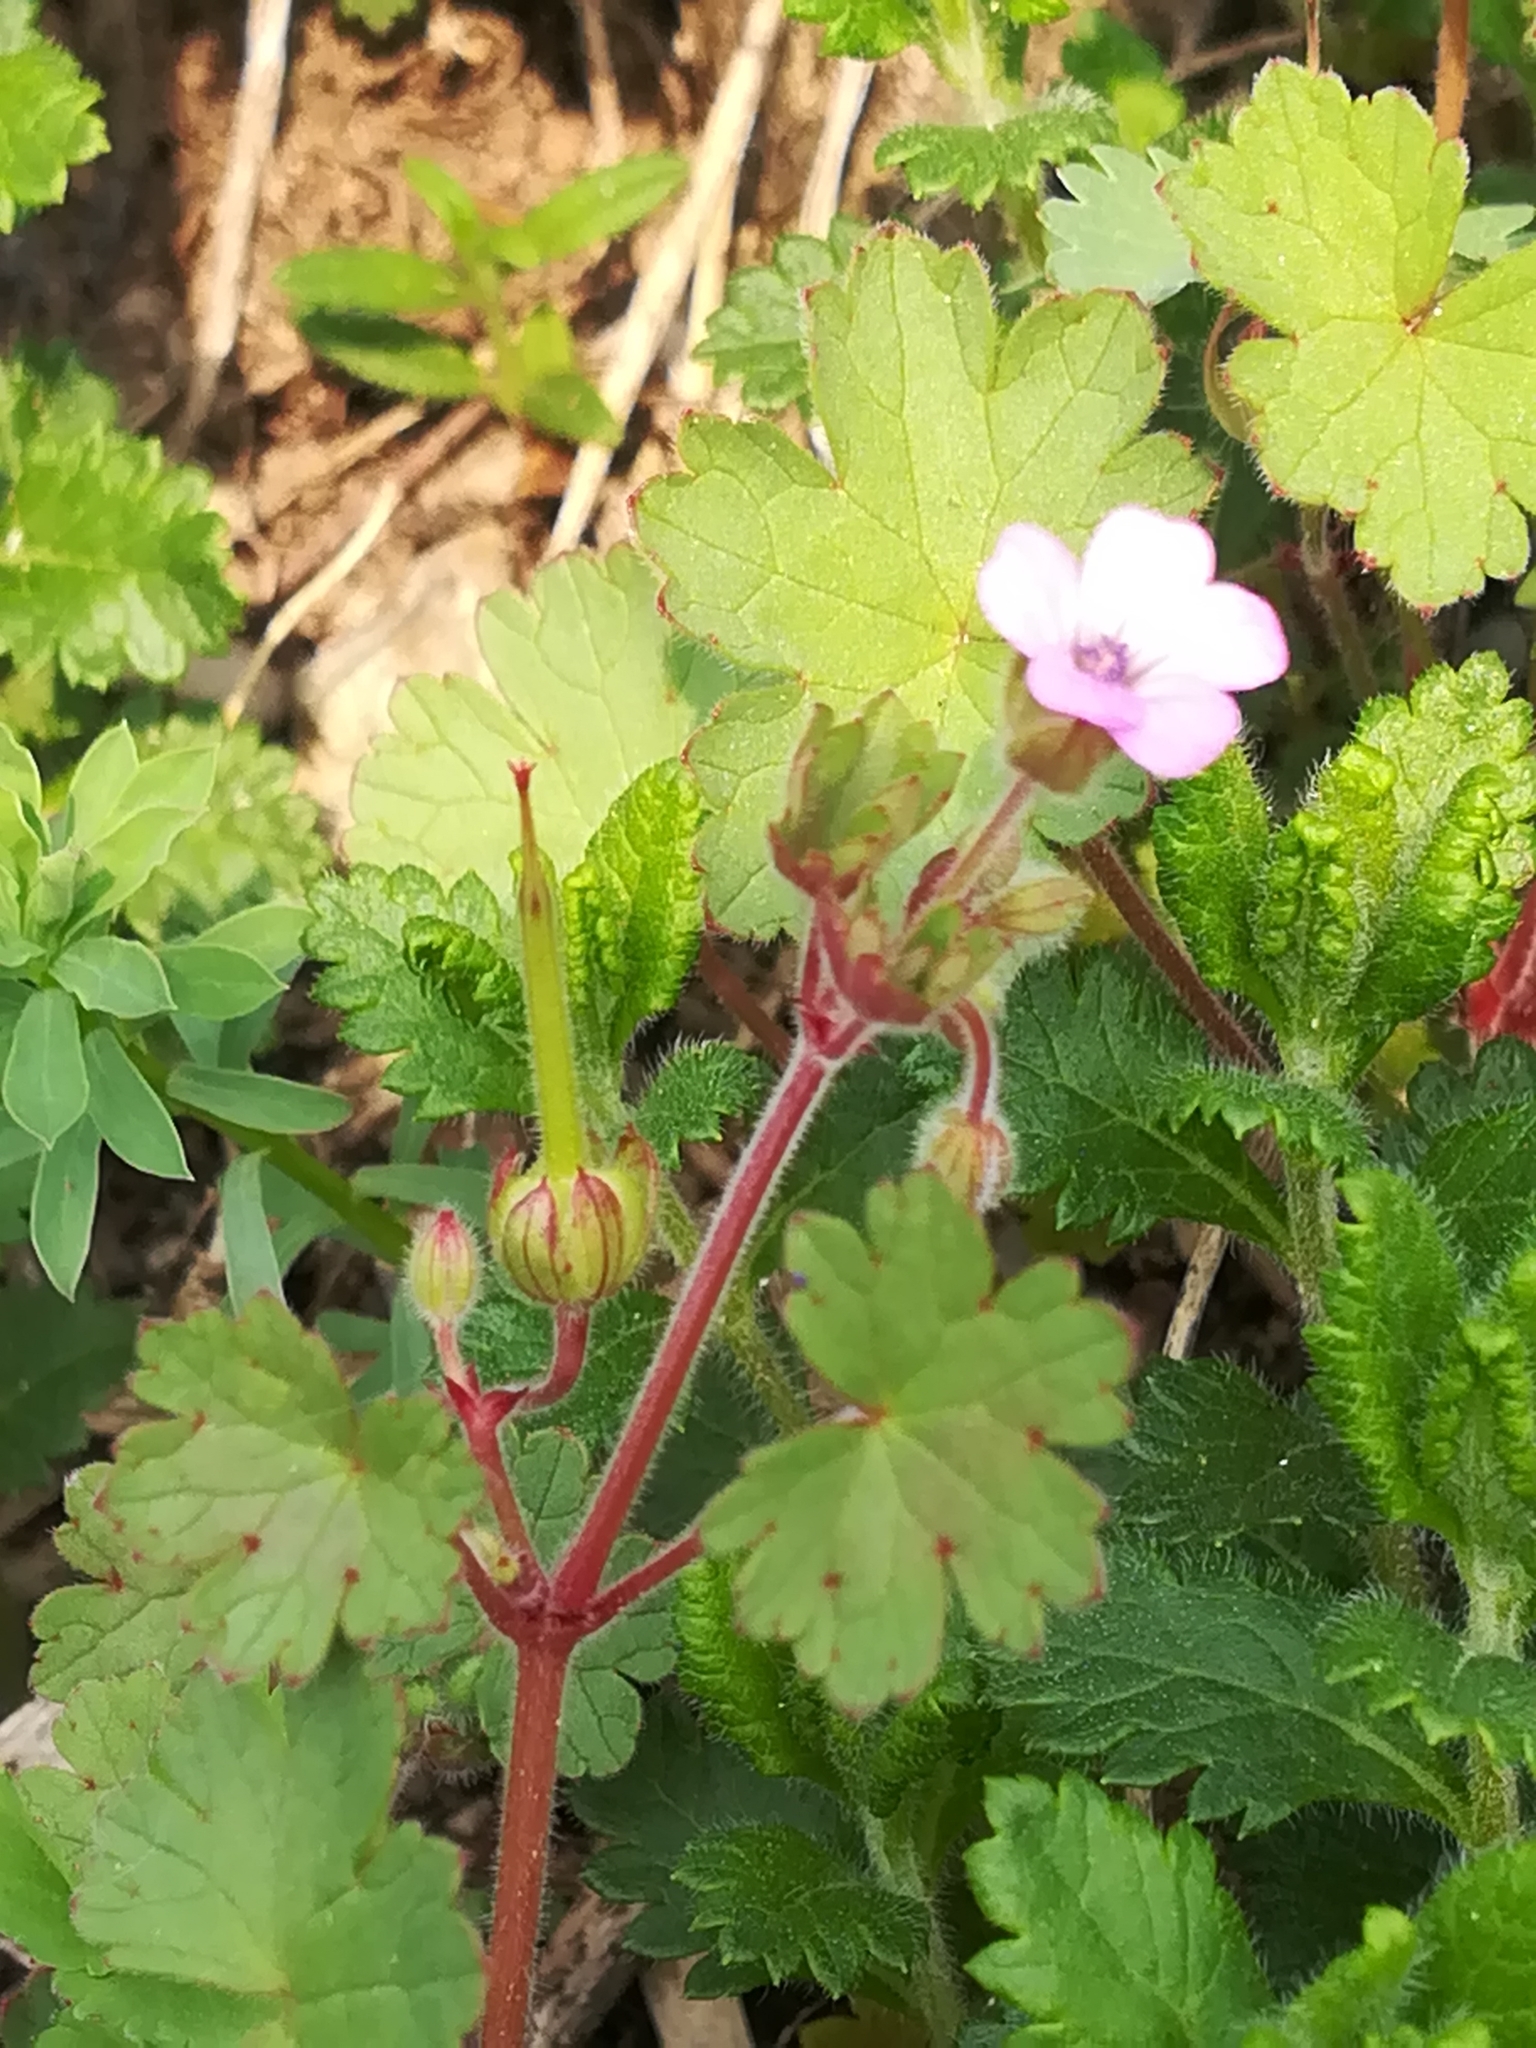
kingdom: Plantae
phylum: Tracheophyta
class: Magnoliopsida
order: Geraniales
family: Geraniaceae
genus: Geranium
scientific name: Geranium rotundifolium
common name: Round-leaved crane's-bill
